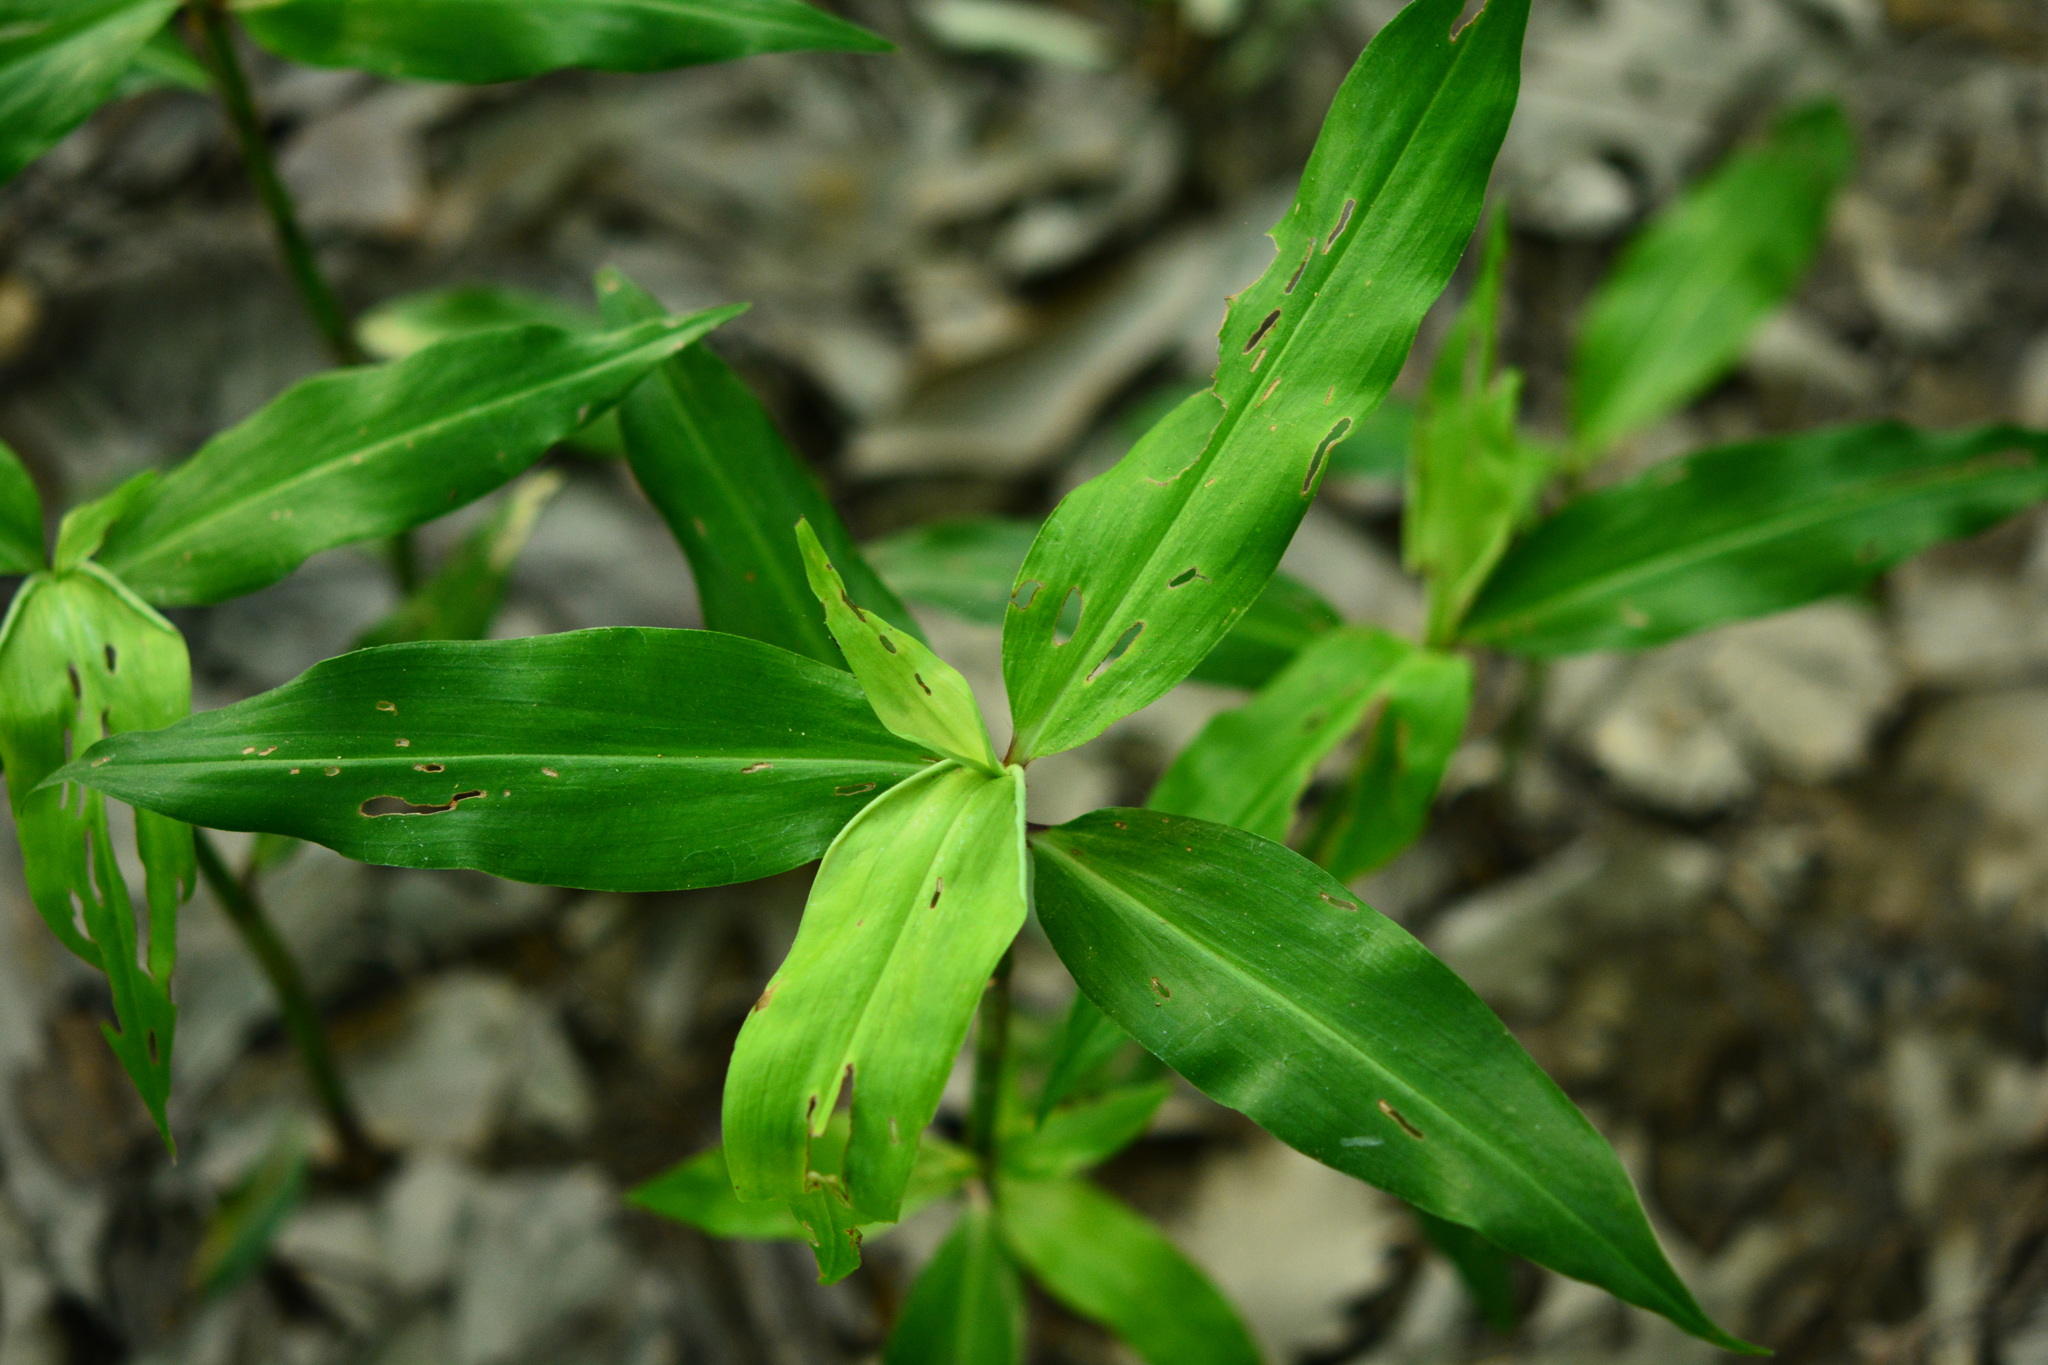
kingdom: Plantae
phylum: Tracheophyta
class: Liliopsida
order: Commelinales
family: Commelinaceae
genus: Commelina
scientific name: Commelina virginica
